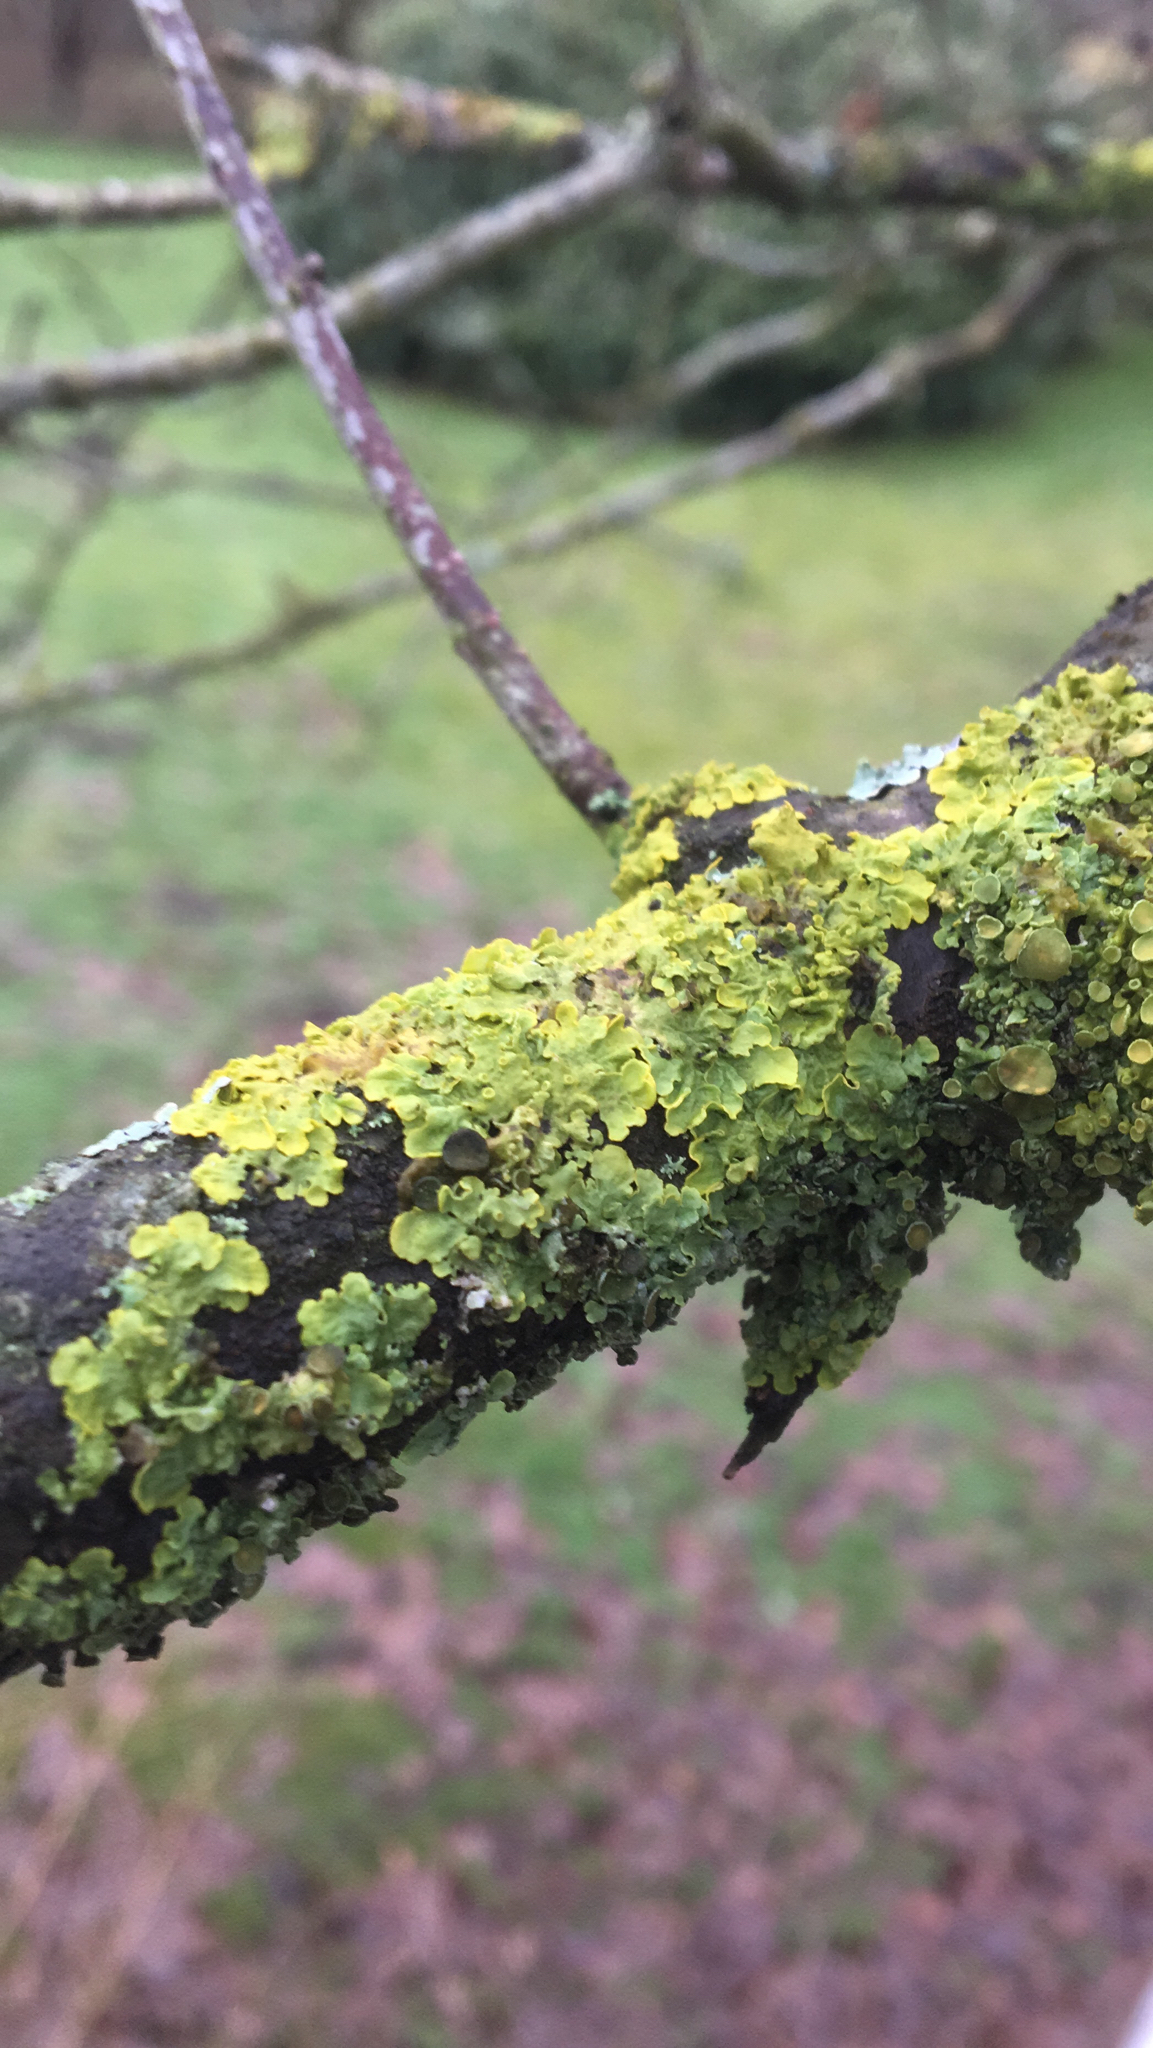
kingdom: Fungi
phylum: Ascomycota
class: Lecanoromycetes
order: Teloschistales
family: Teloschistaceae
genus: Xanthoria
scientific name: Xanthoria parietina
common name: Common orange lichen
